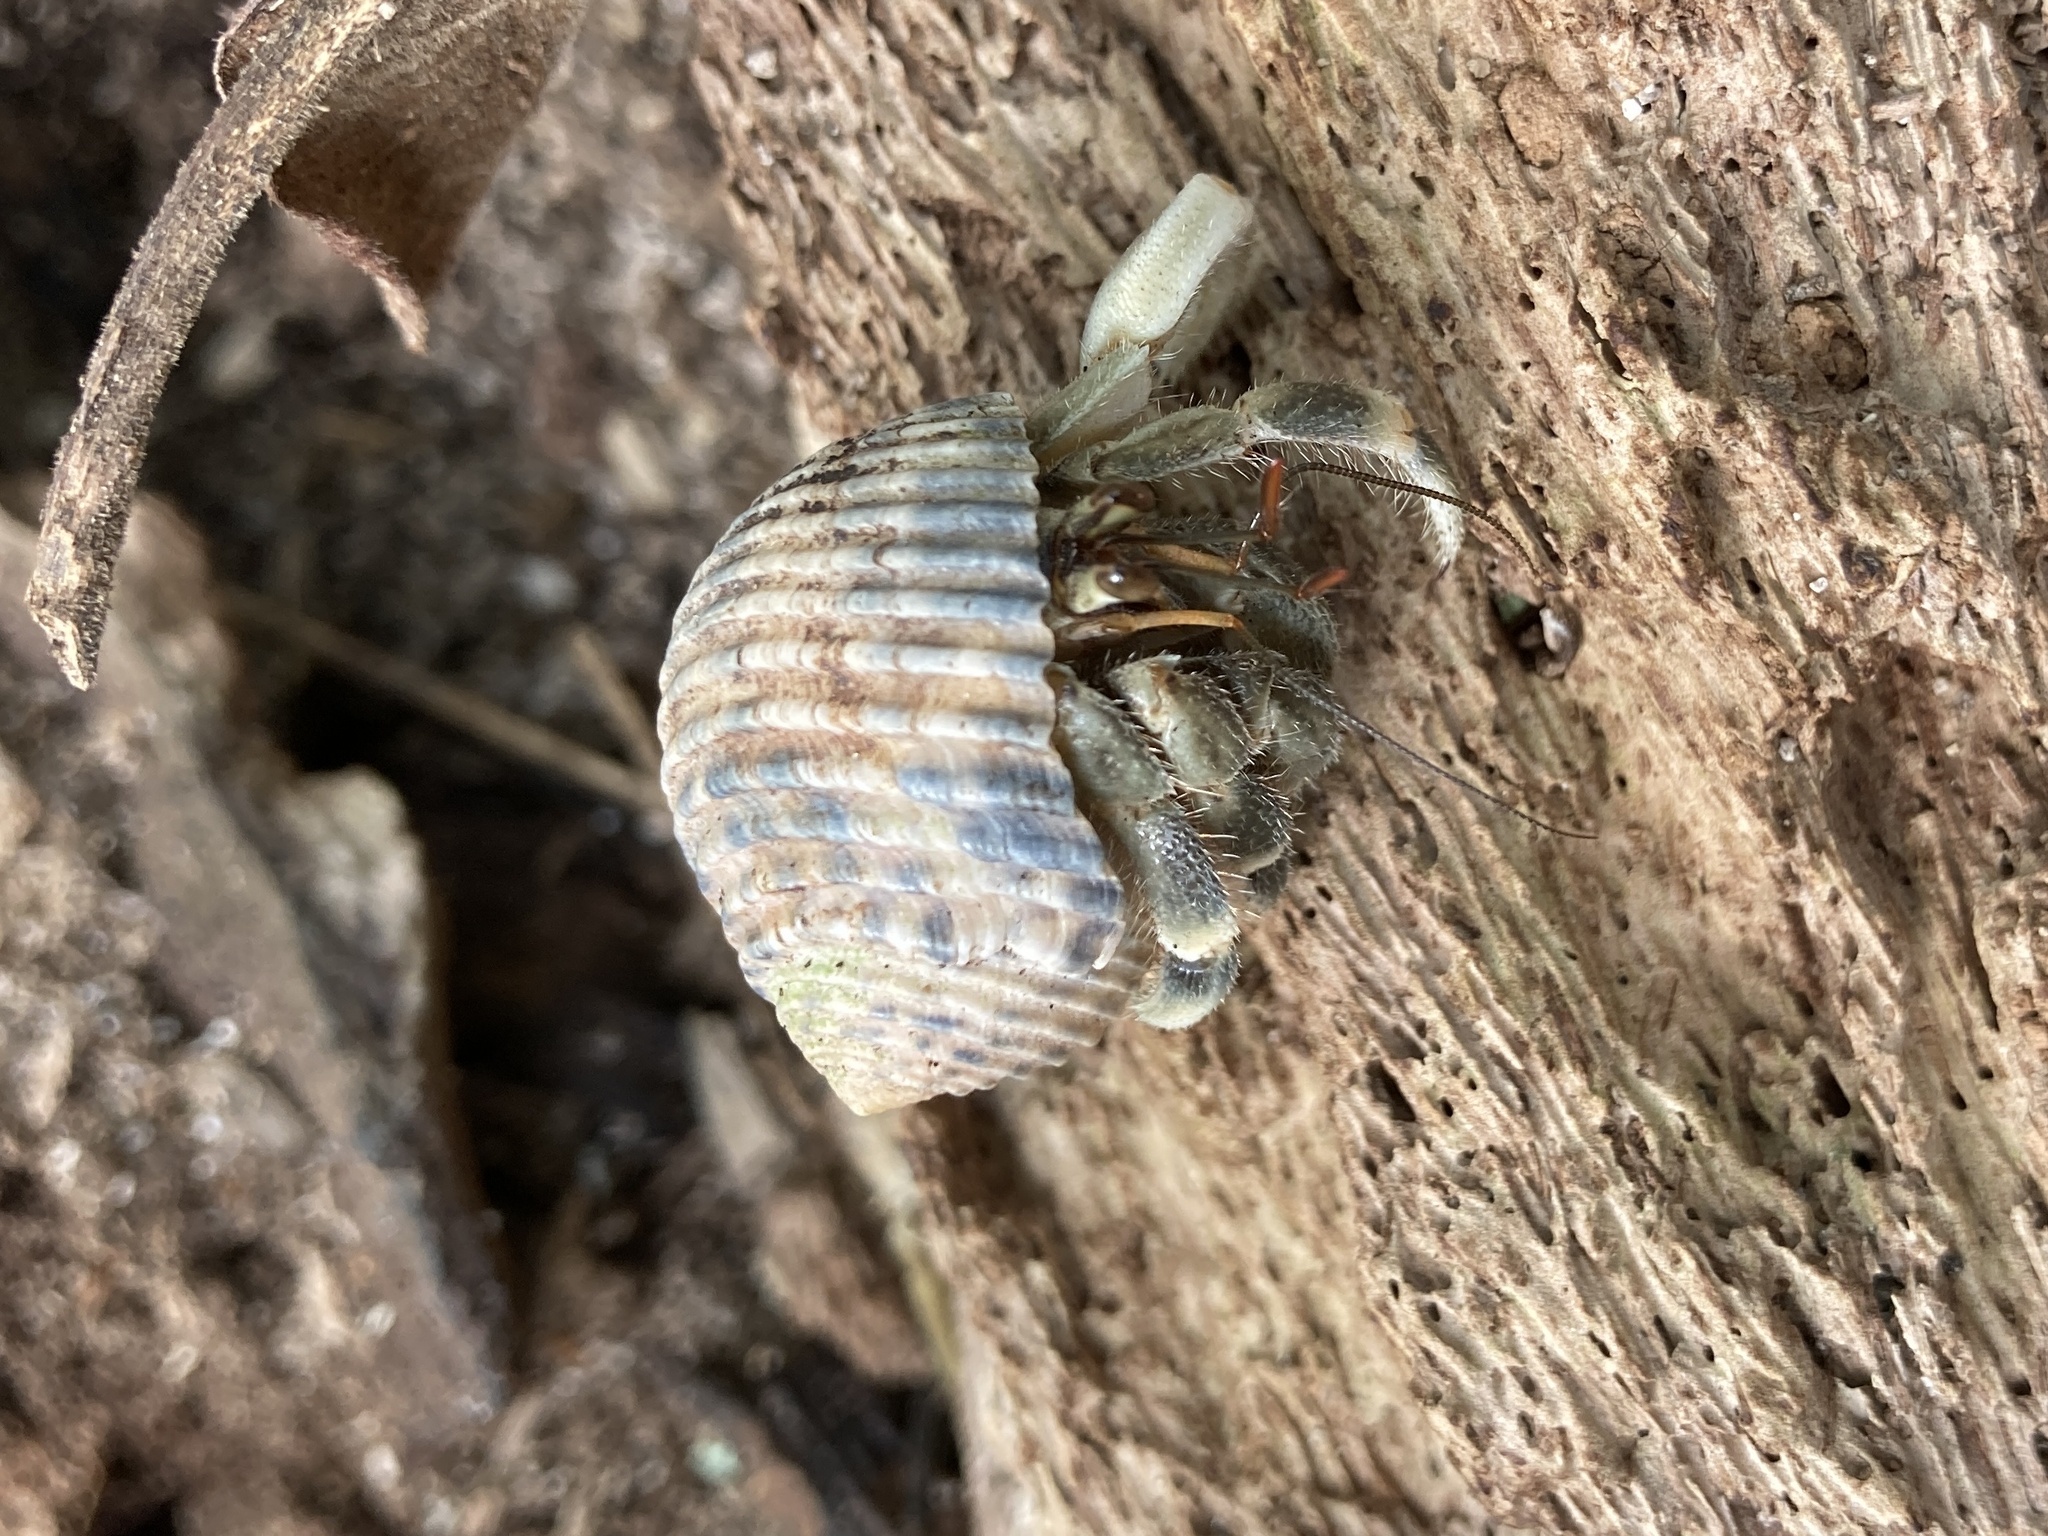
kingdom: Animalia
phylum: Arthropoda
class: Malacostraca
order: Decapoda
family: Coenobitidae
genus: Coenobita
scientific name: Coenobita rugosus
